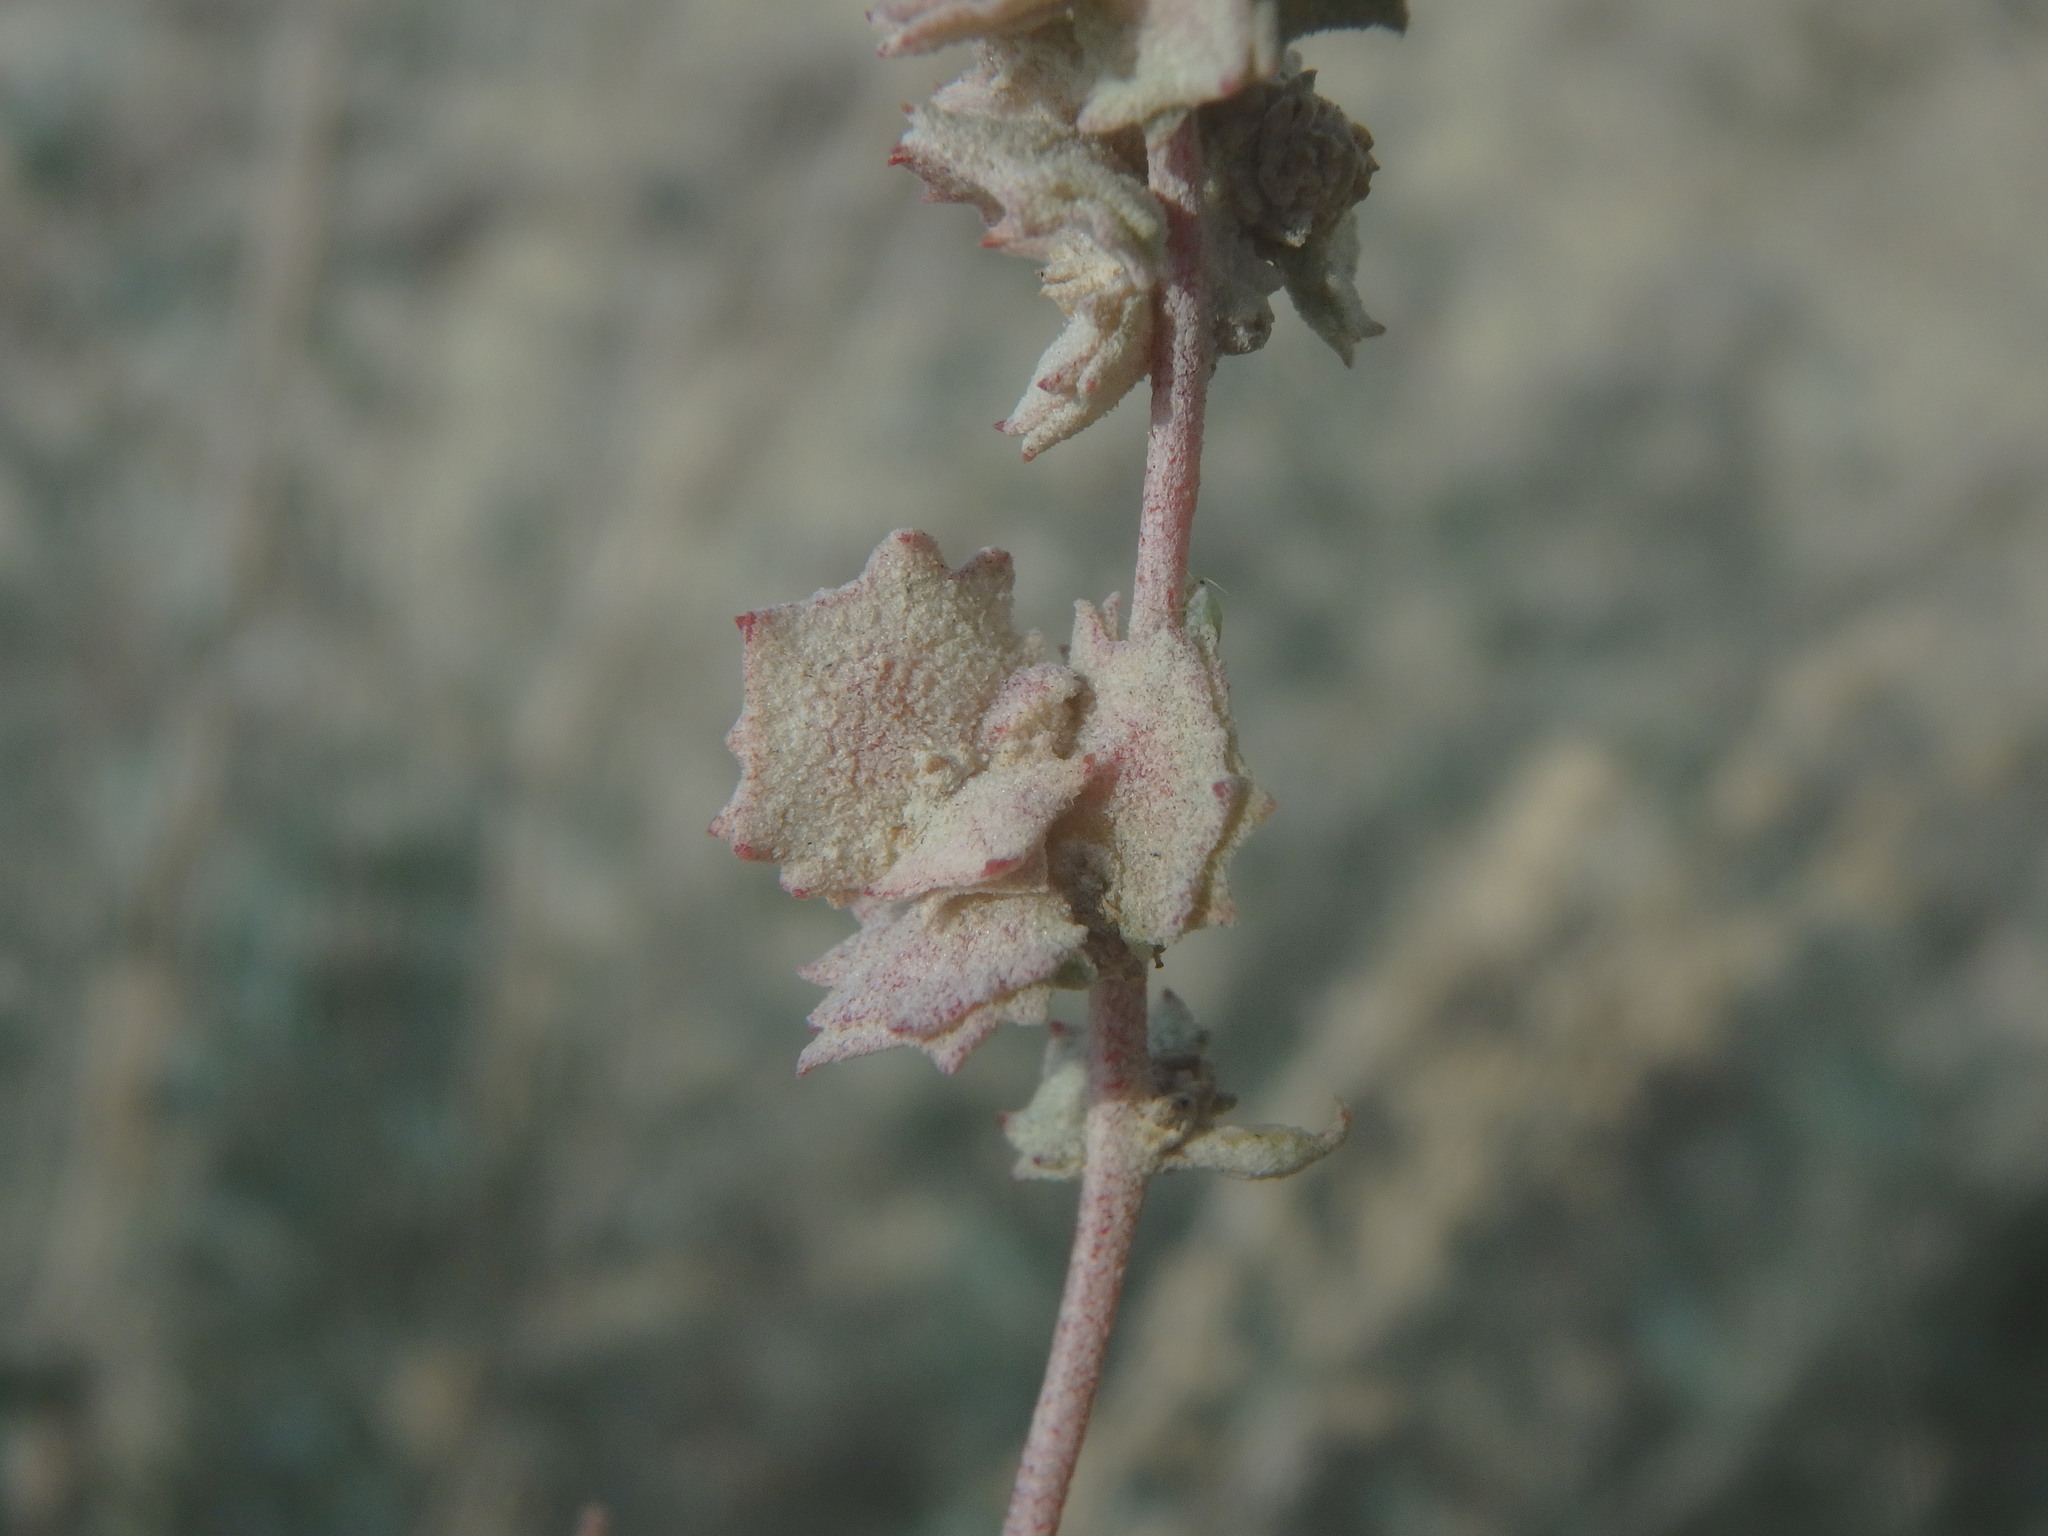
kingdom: Plantae
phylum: Tracheophyta
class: Magnoliopsida
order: Caryophyllales
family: Amaranthaceae
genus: Atriplex
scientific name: Atriplex halimus
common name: Shrubby orache
